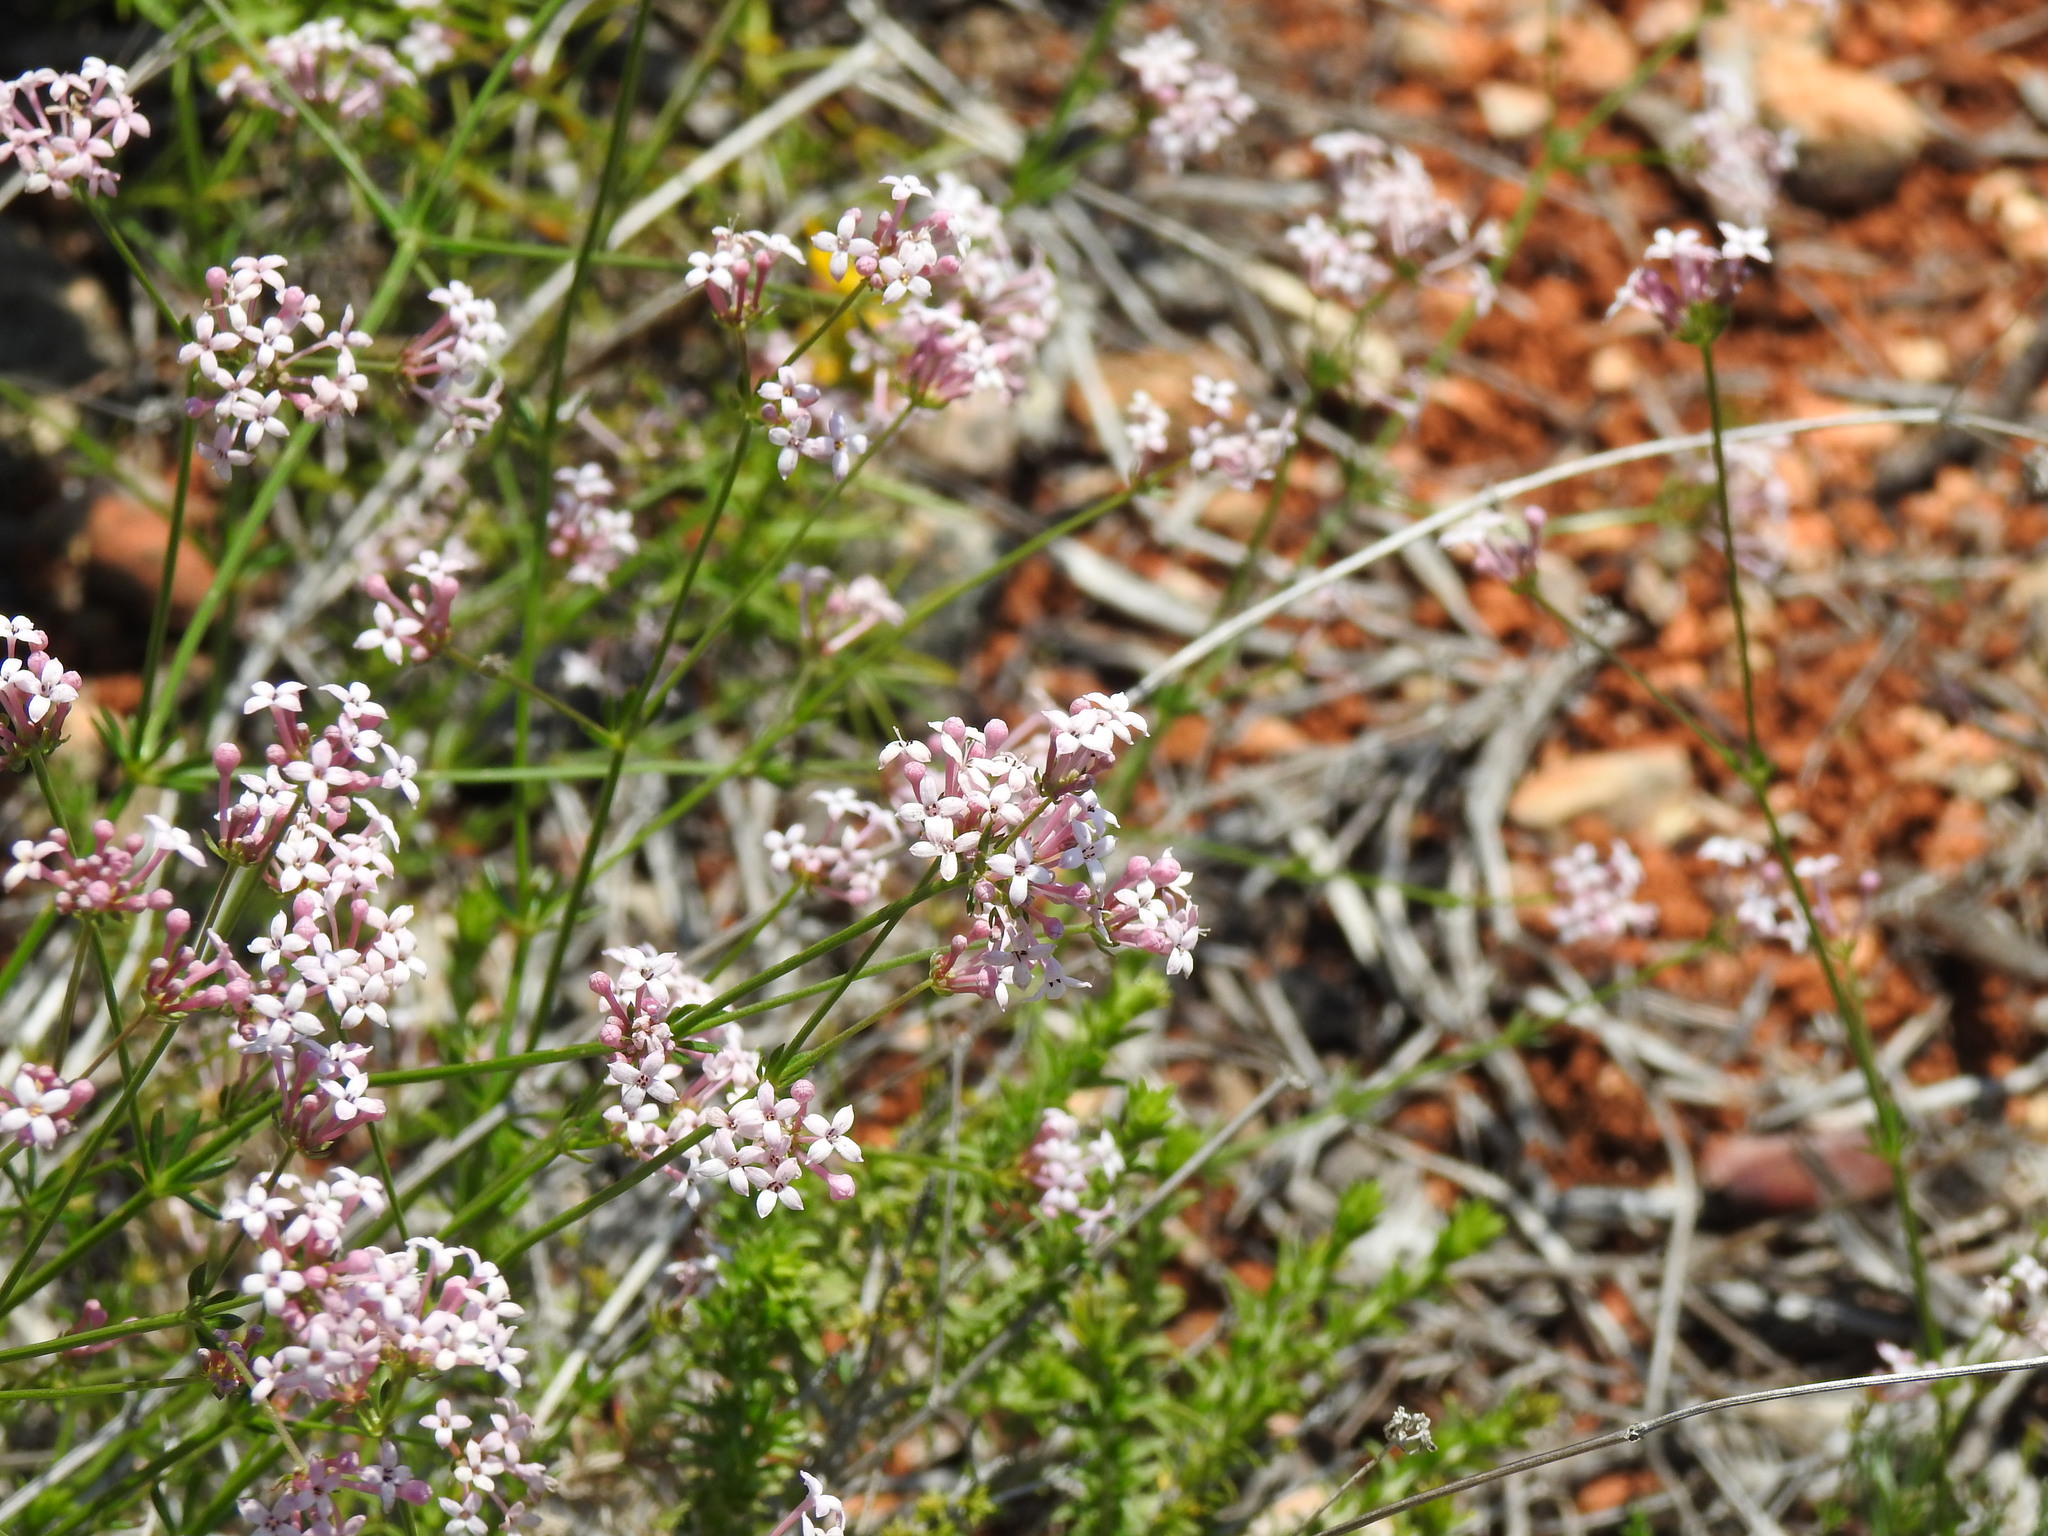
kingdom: Plantae
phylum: Tracheophyta
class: Magnoliopsida
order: Gentianales
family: Rubiaceae
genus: Hexaphylla
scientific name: Hexaphylla hirsuta
